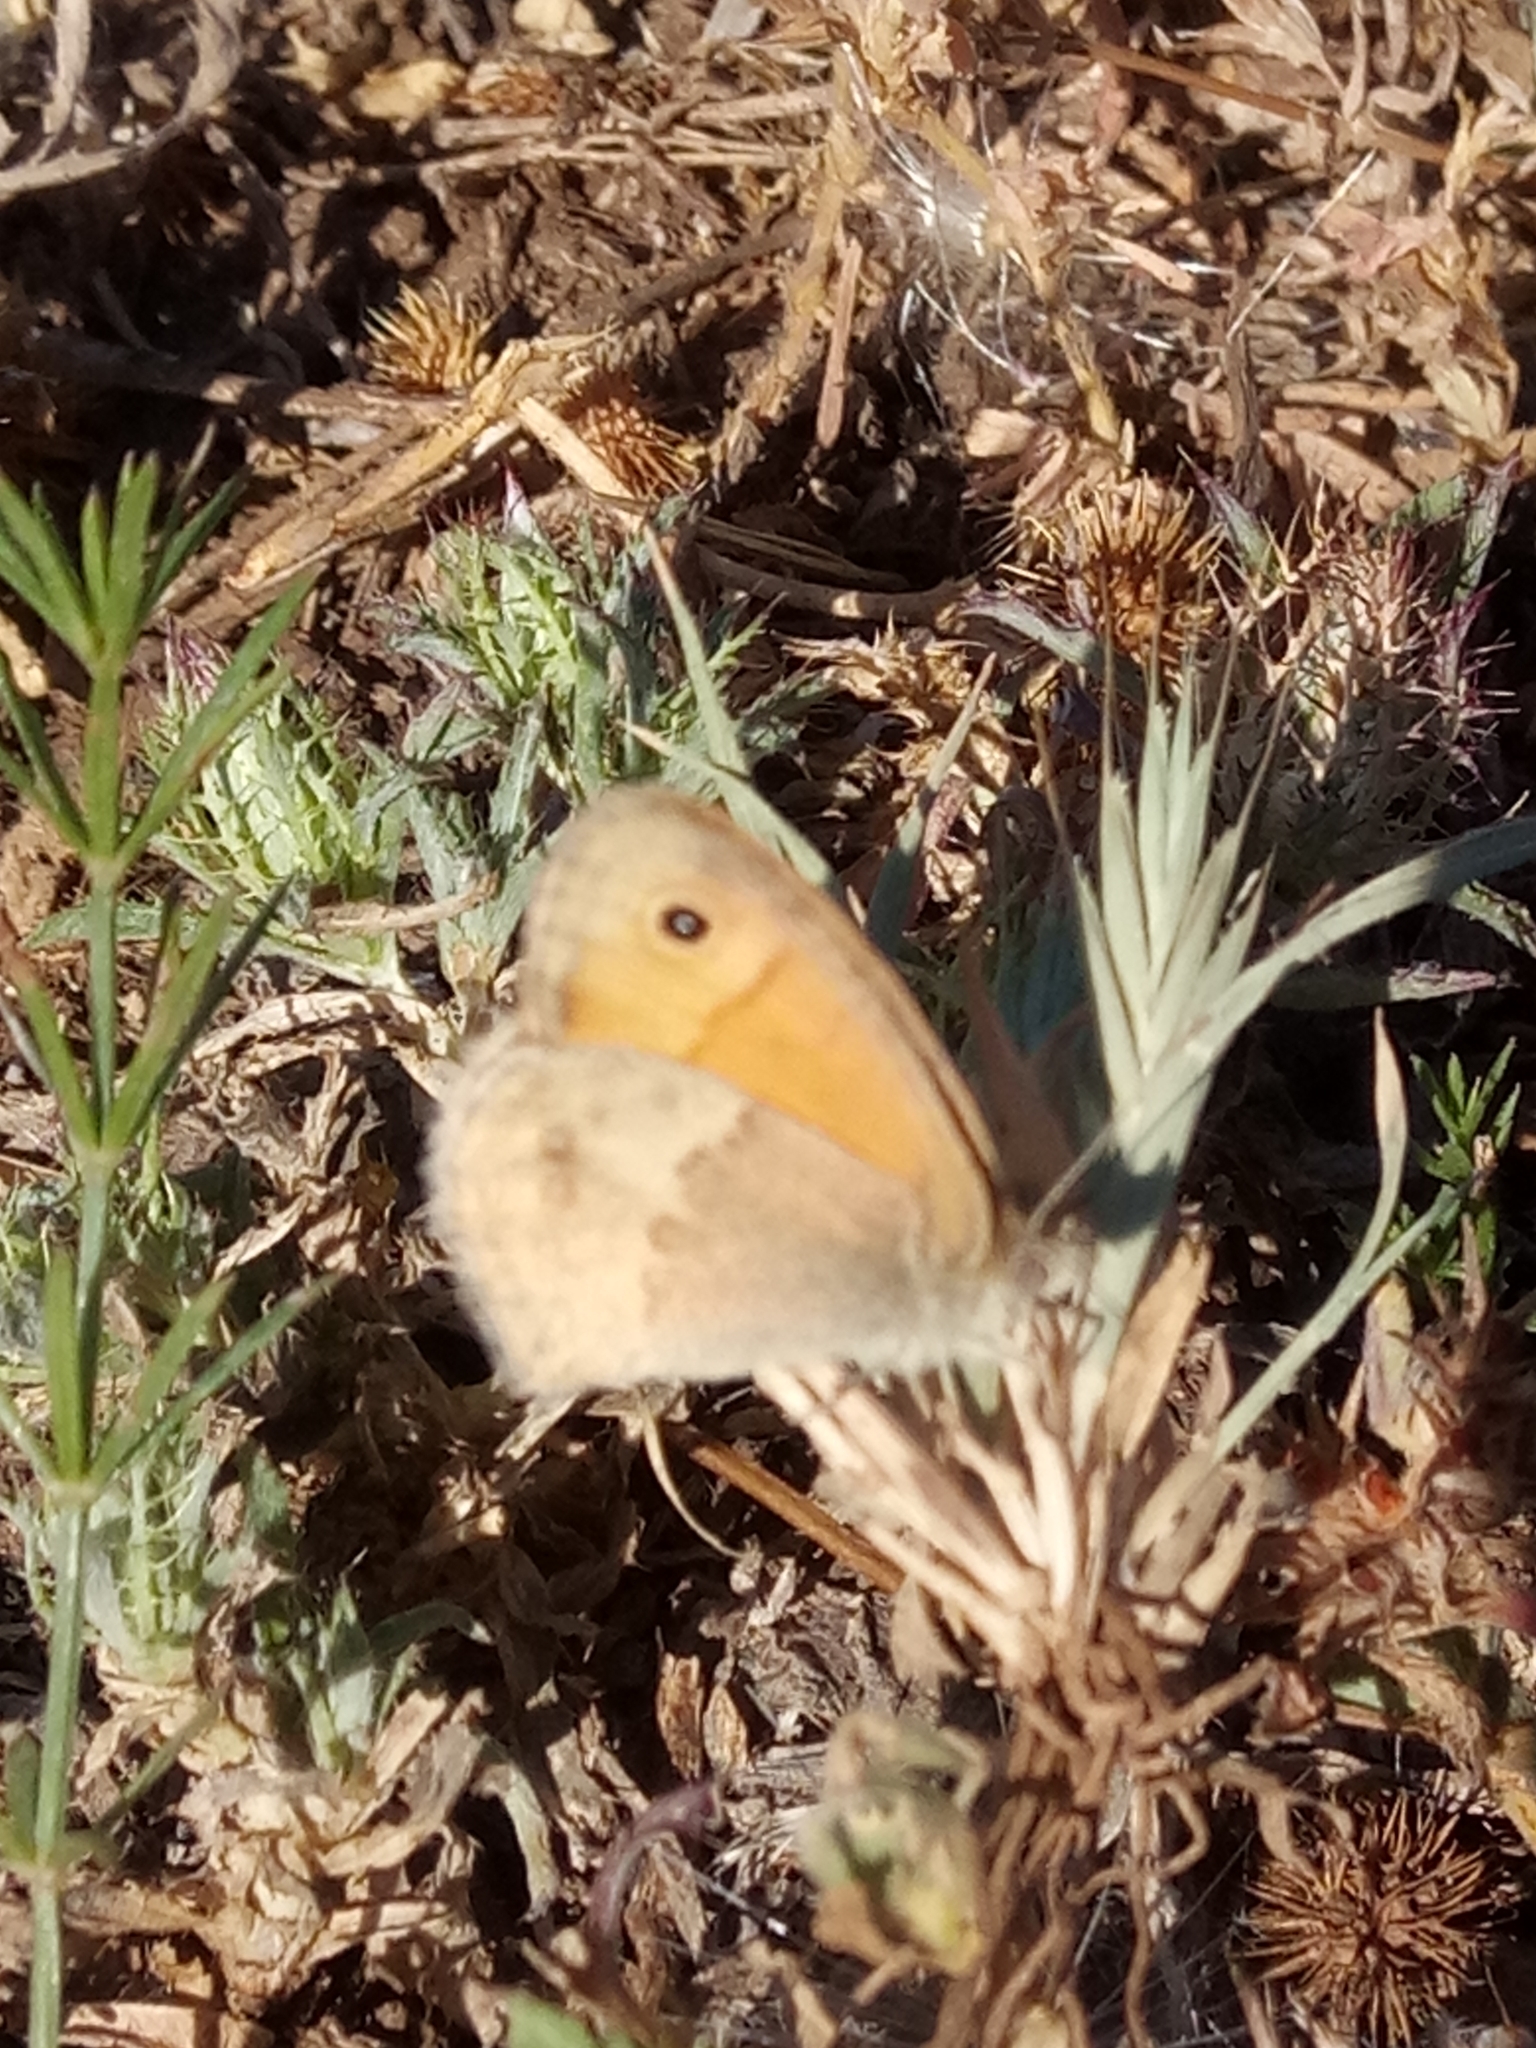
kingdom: Animalia
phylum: Arthropoda
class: Insecta
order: Lepidoptera
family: Nymphalidae
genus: Coenonympha
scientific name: Coenonympha pamphilus
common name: Small heath
